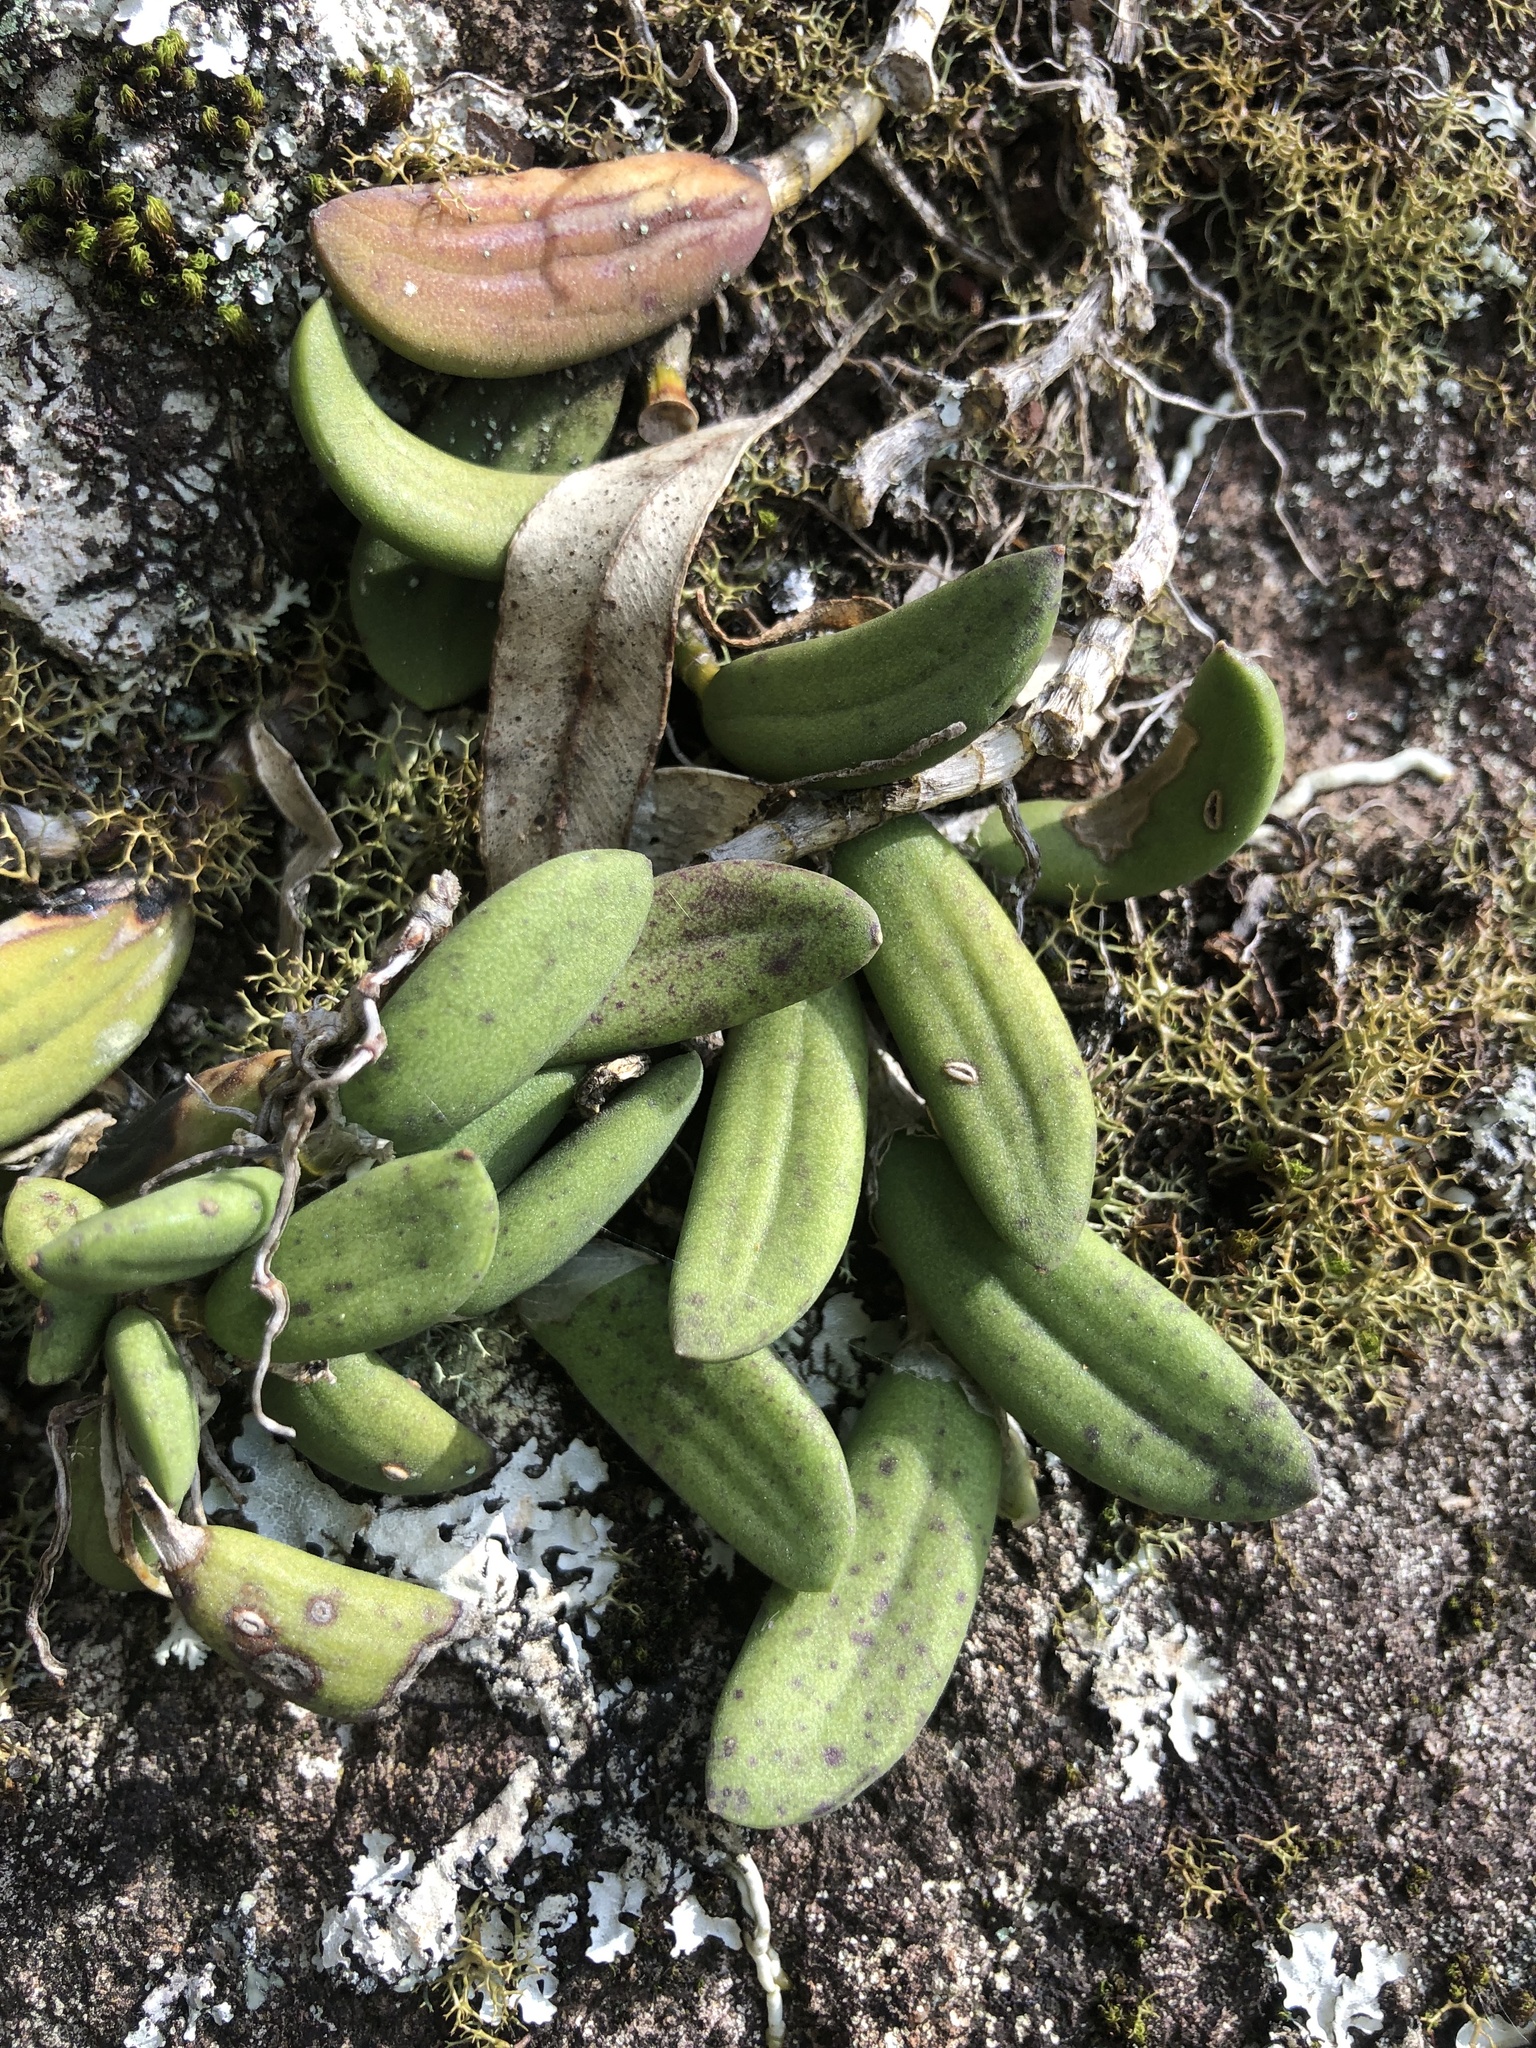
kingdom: Plantae
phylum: Tracheophyta
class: Liliopsida
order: Asparagales
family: Orchidaceae
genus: Dendrobium
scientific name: Dendrobium linguiforme
